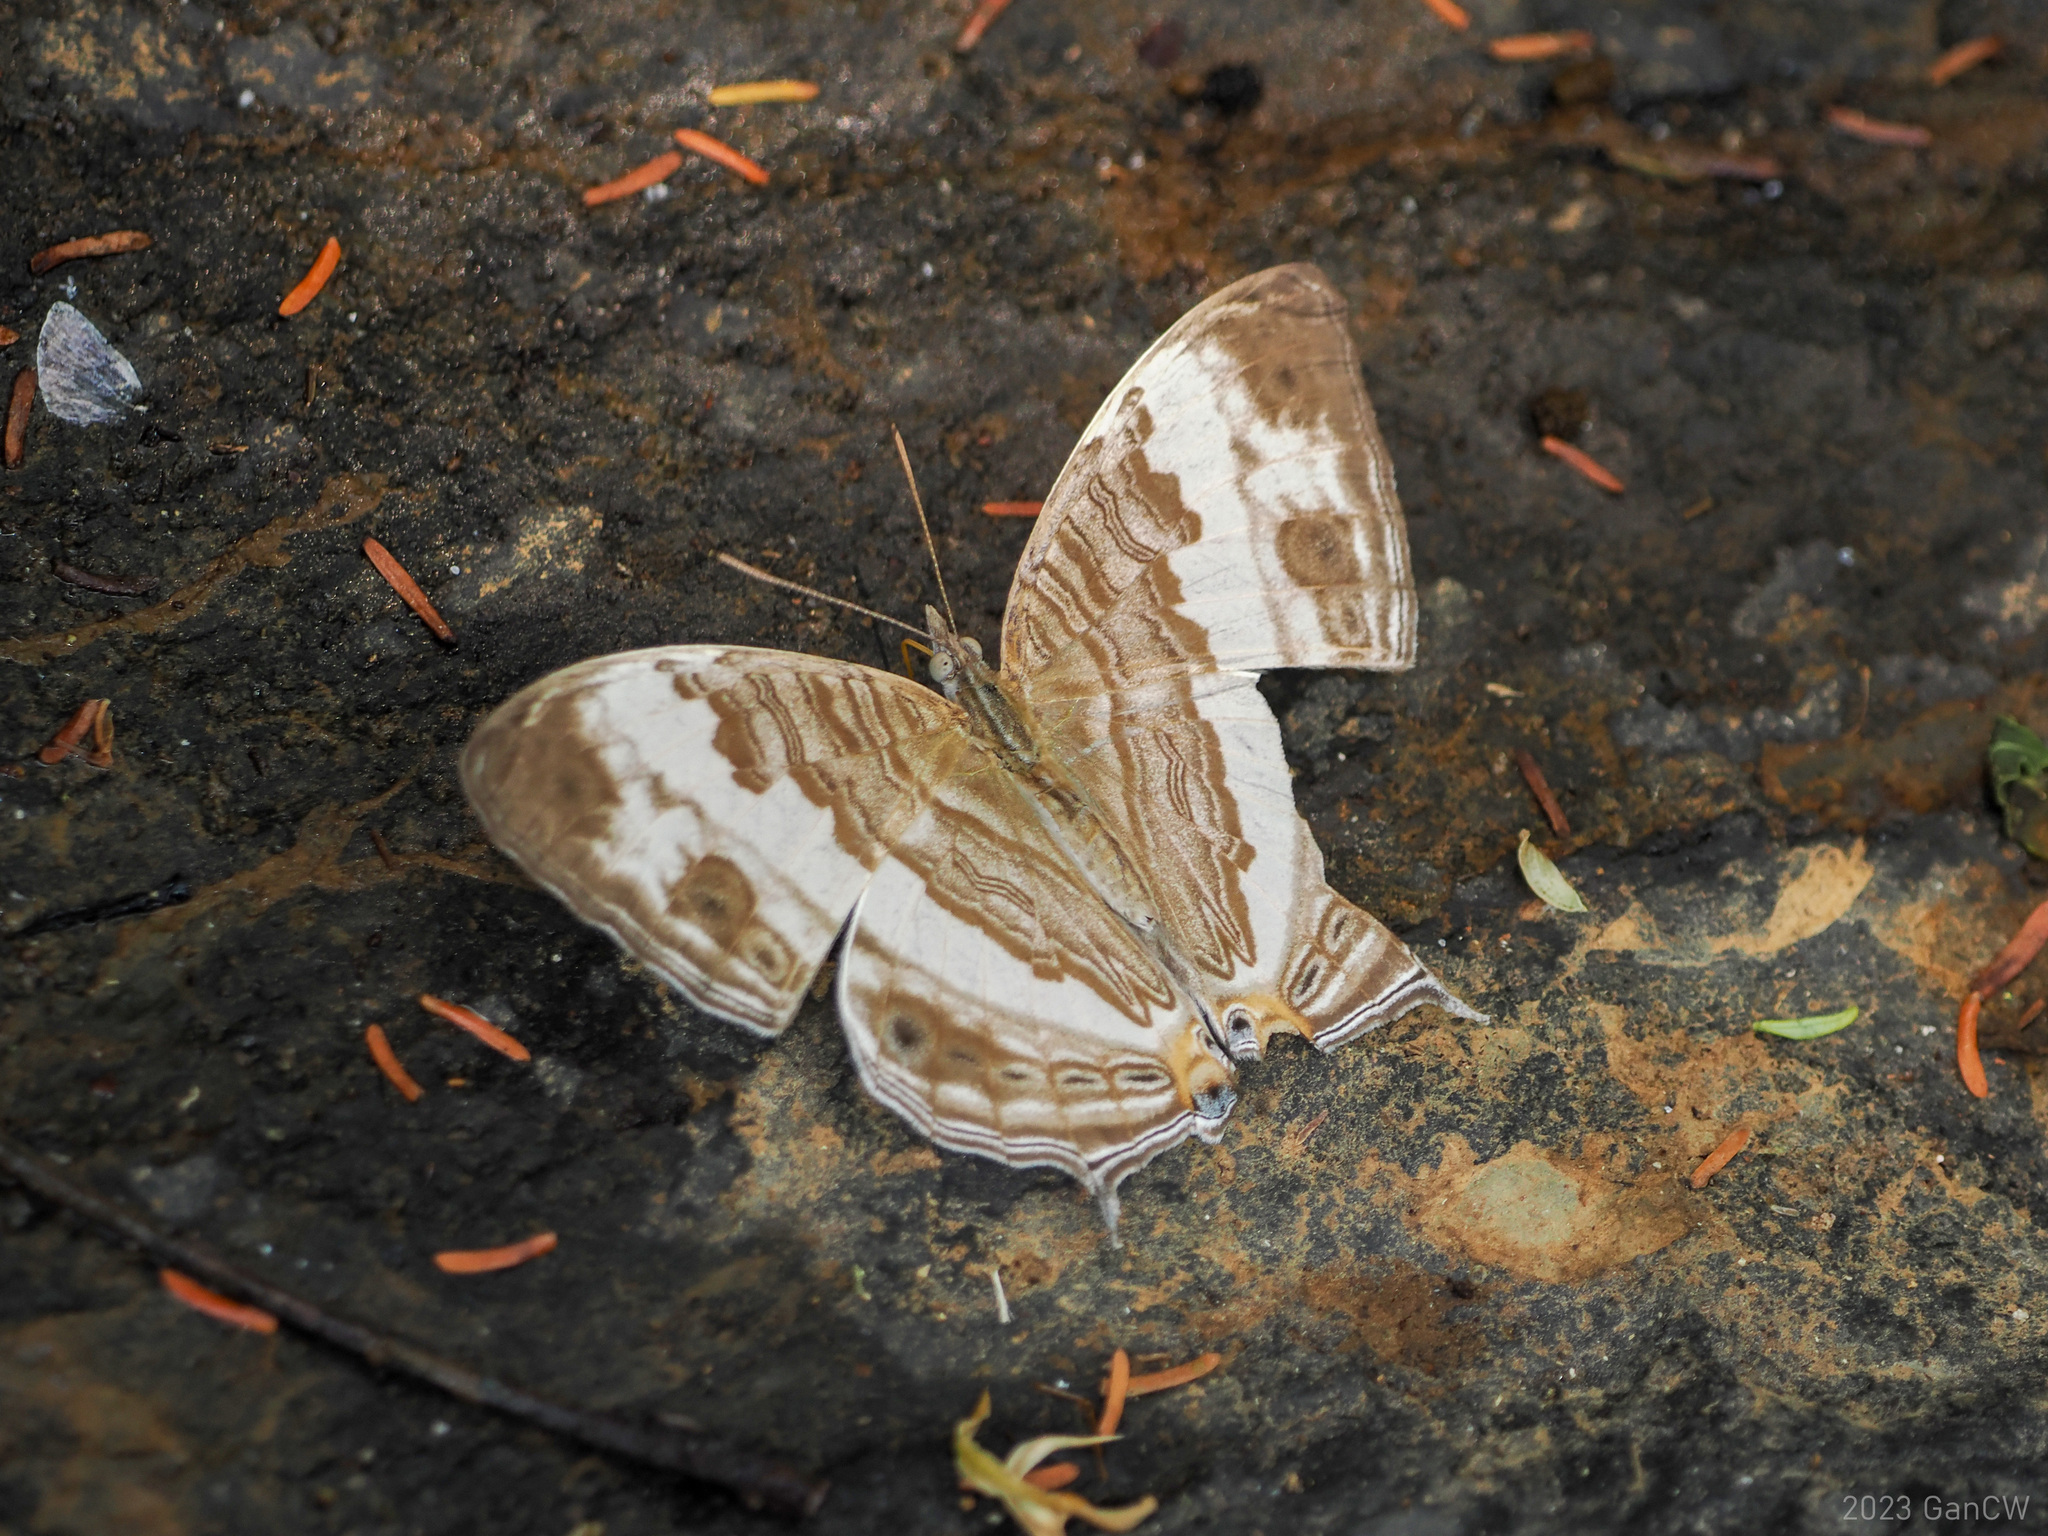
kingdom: Animalia
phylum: Arthropoda
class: Insecta
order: Lepidoptera
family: Nymphalidae
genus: Cyrestis
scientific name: Cyrestis cocles
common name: Marbled map
